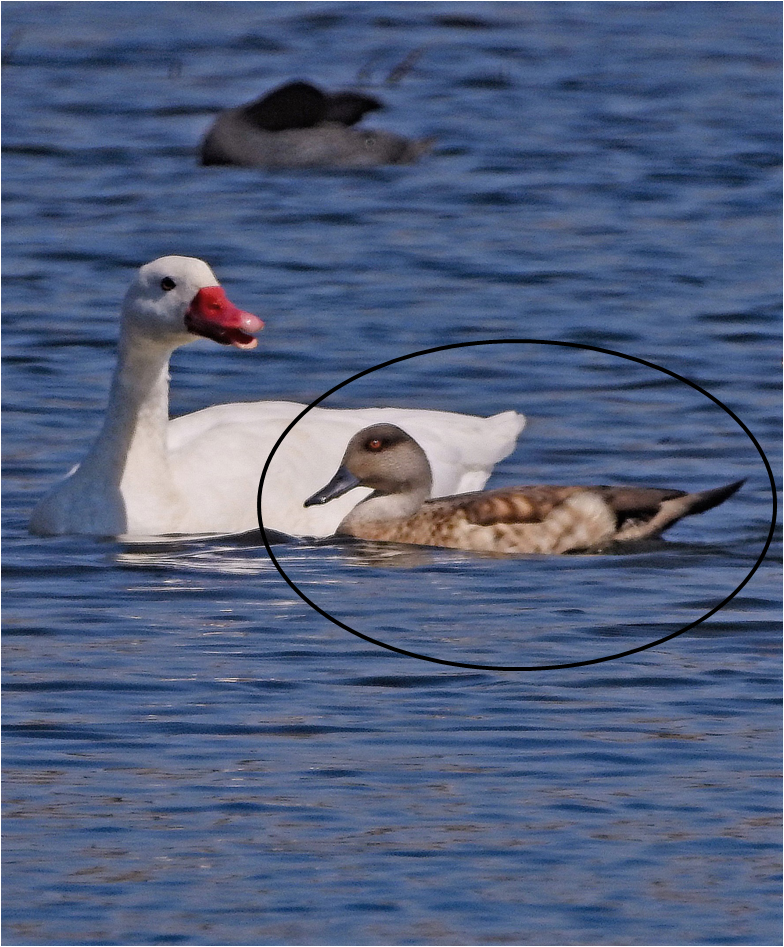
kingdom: Animalia
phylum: Chordata
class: Aves
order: Anseriformes
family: Anatidae
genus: Lophonetta
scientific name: Lophonetta specularioides
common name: Crested duck
